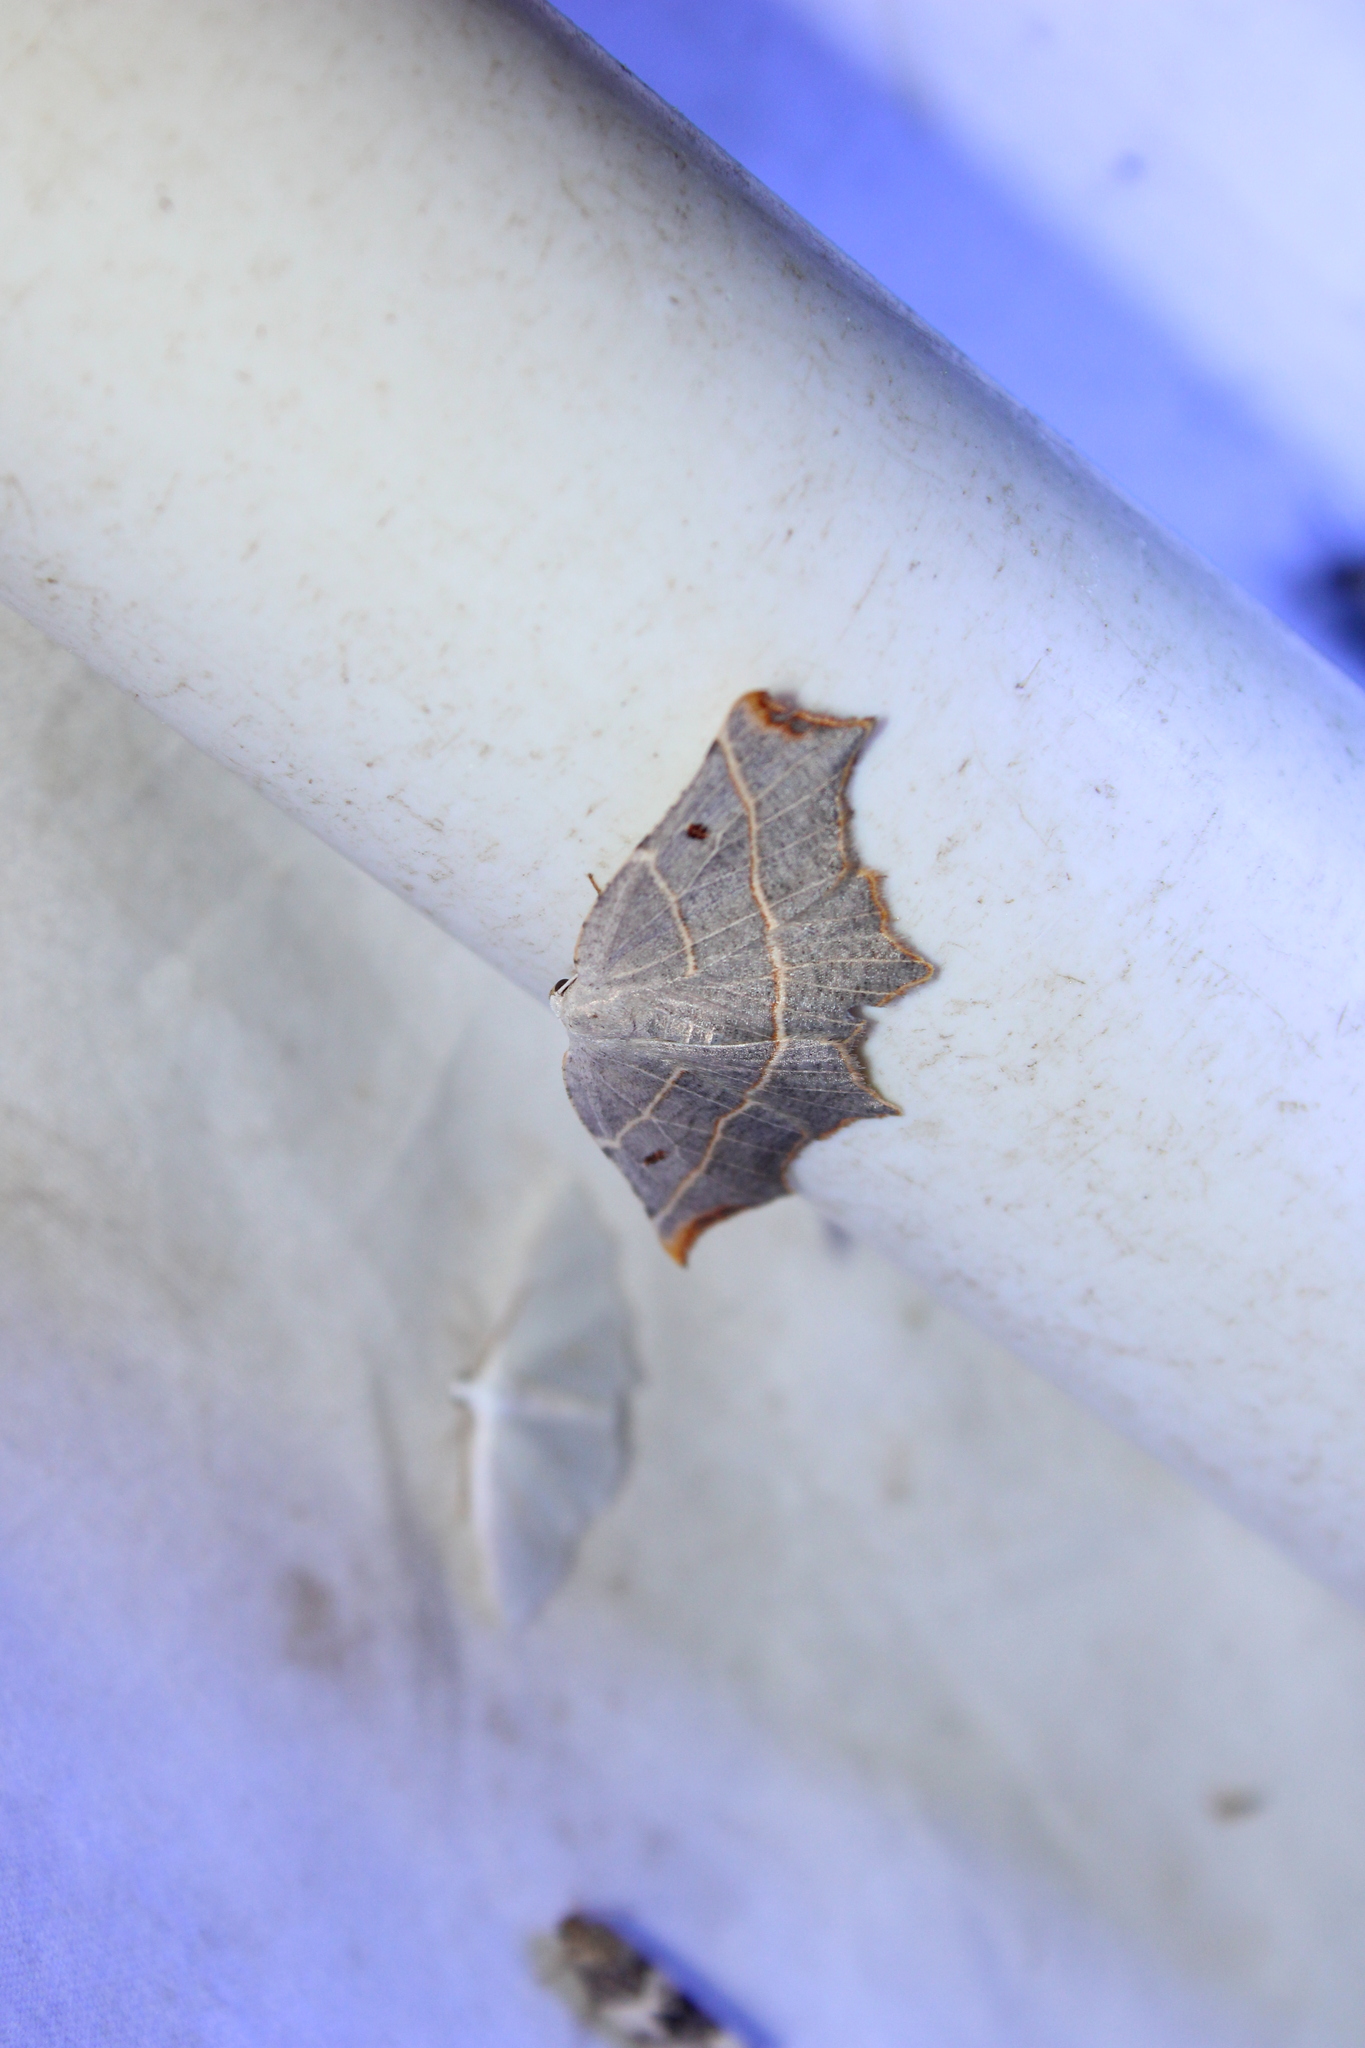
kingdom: Animalia
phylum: Arthropoda
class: Insecta
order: Lepidoptera
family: Geometridae
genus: Metanema
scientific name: Metanema inatomaria
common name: Pale metanema
